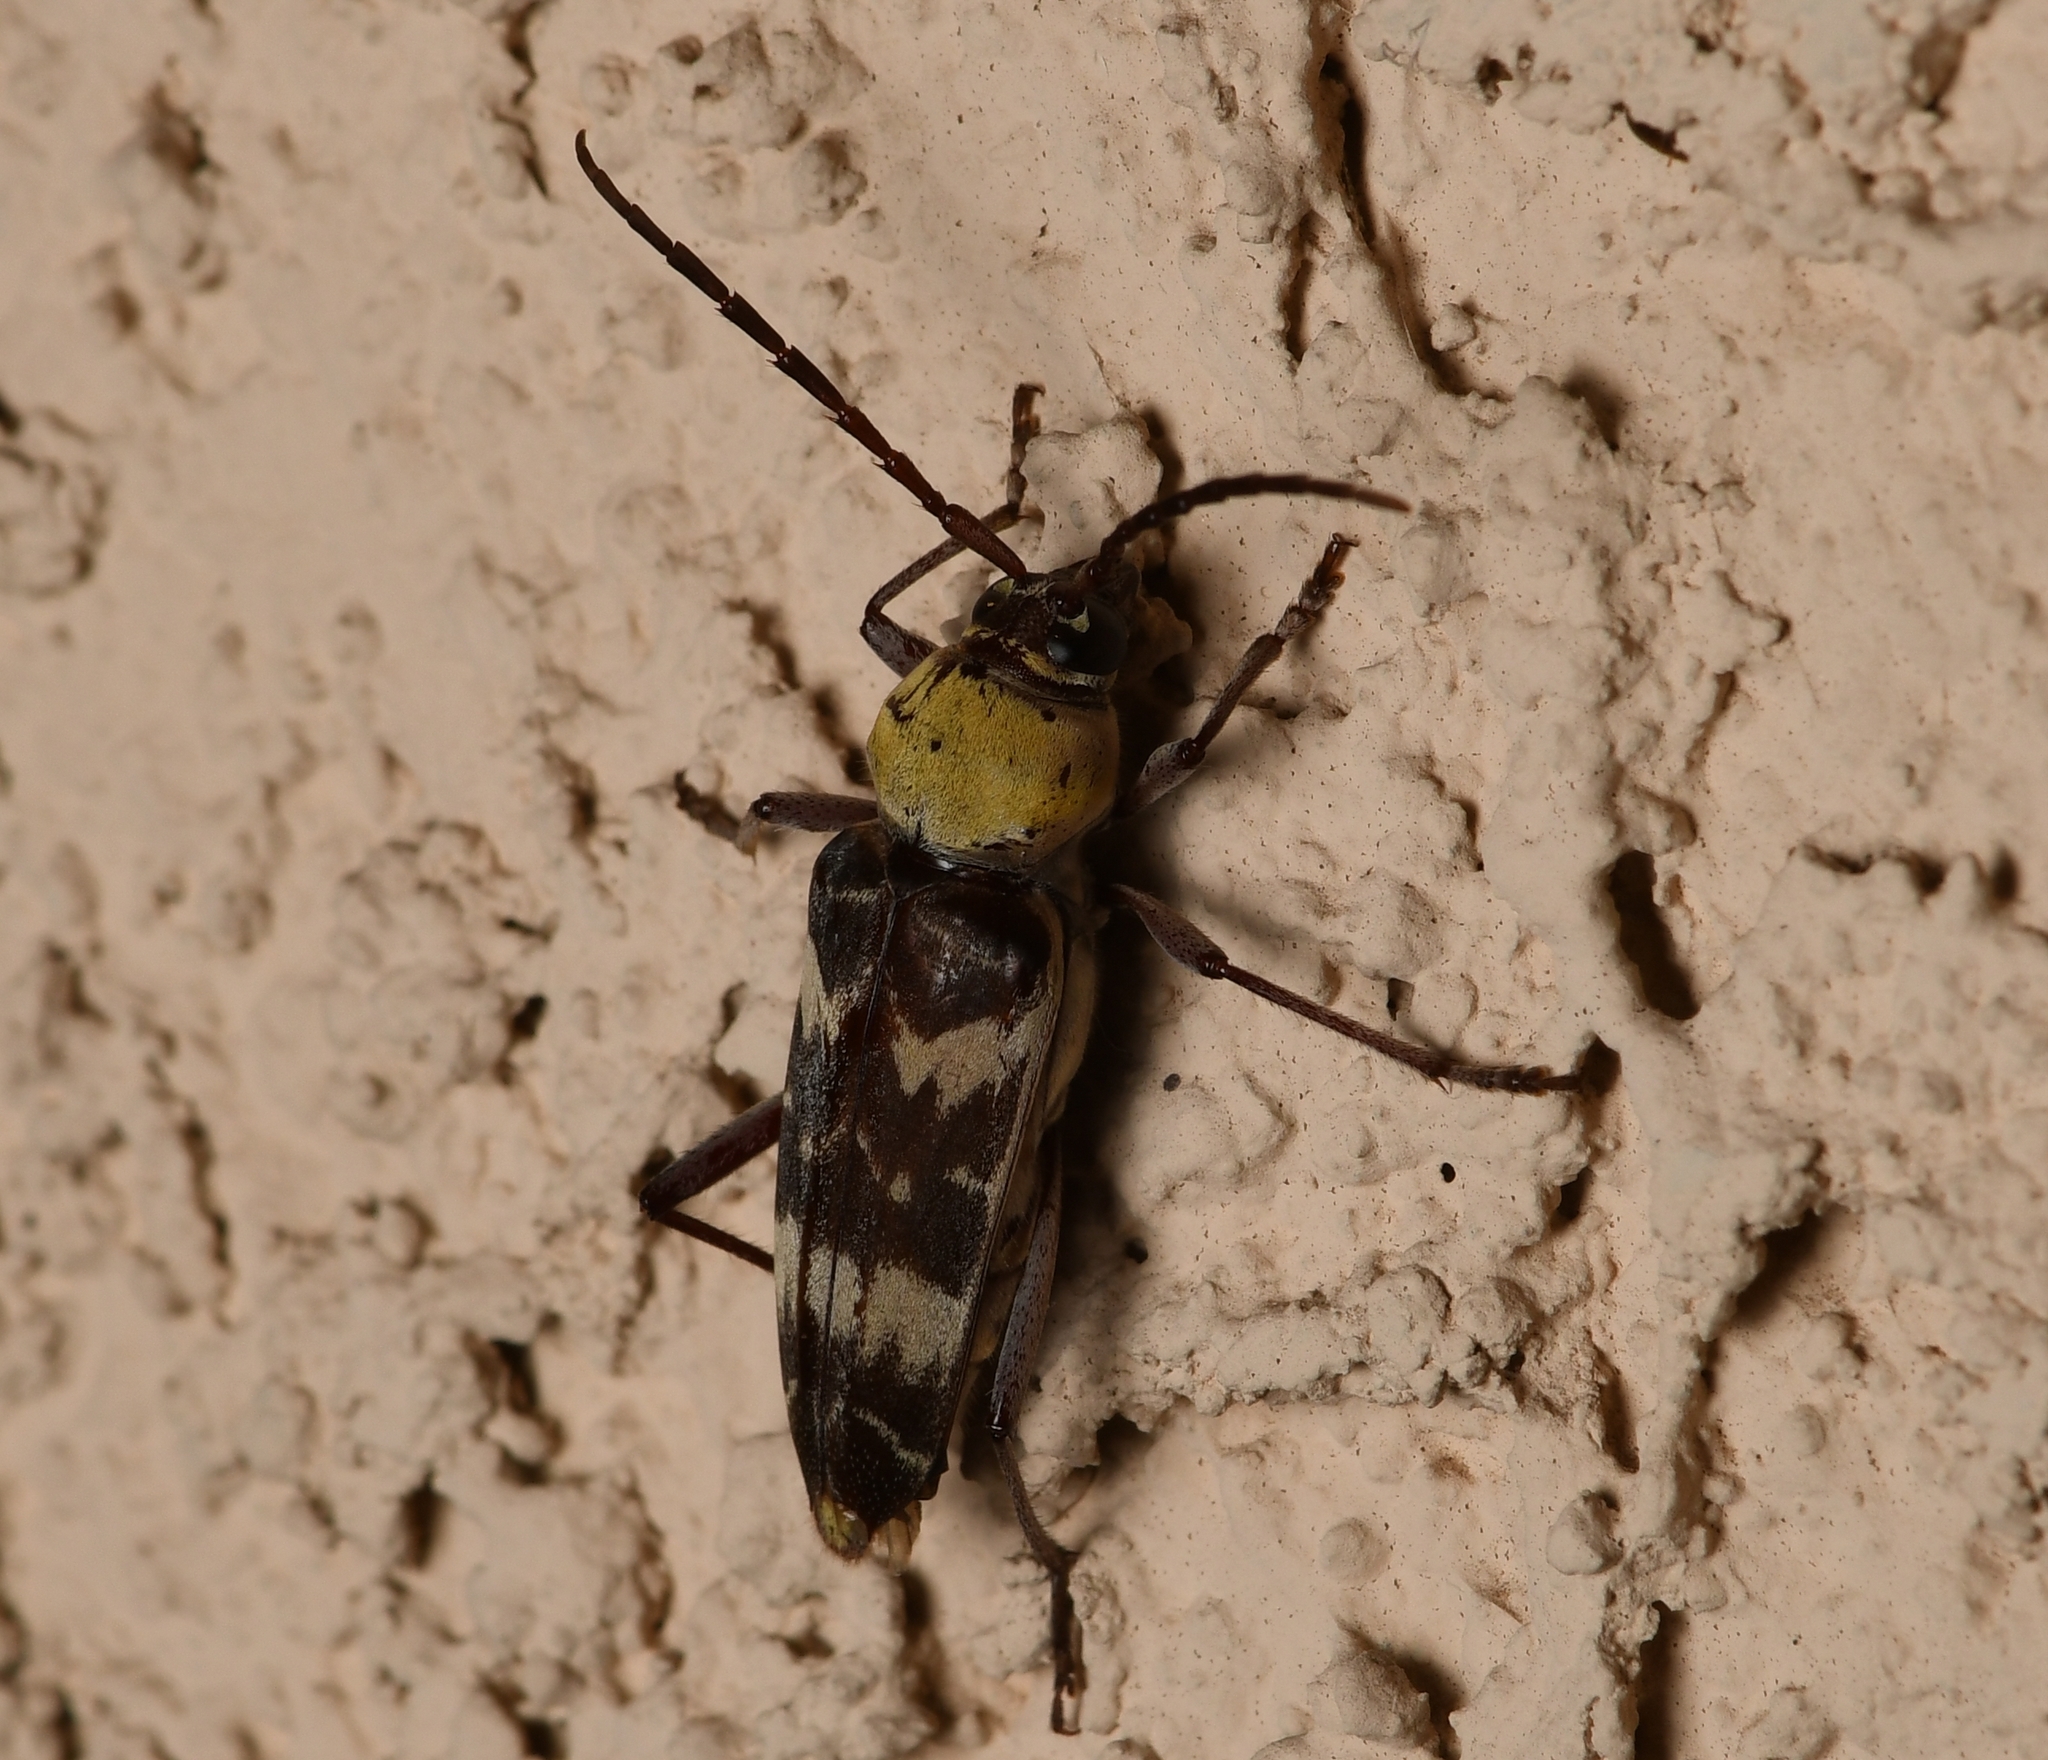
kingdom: Animalia
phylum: Arthropoda
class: Insecta
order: Coleoptera
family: Cerambycidae
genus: Megacyllene
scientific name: Megacyllene antennata
